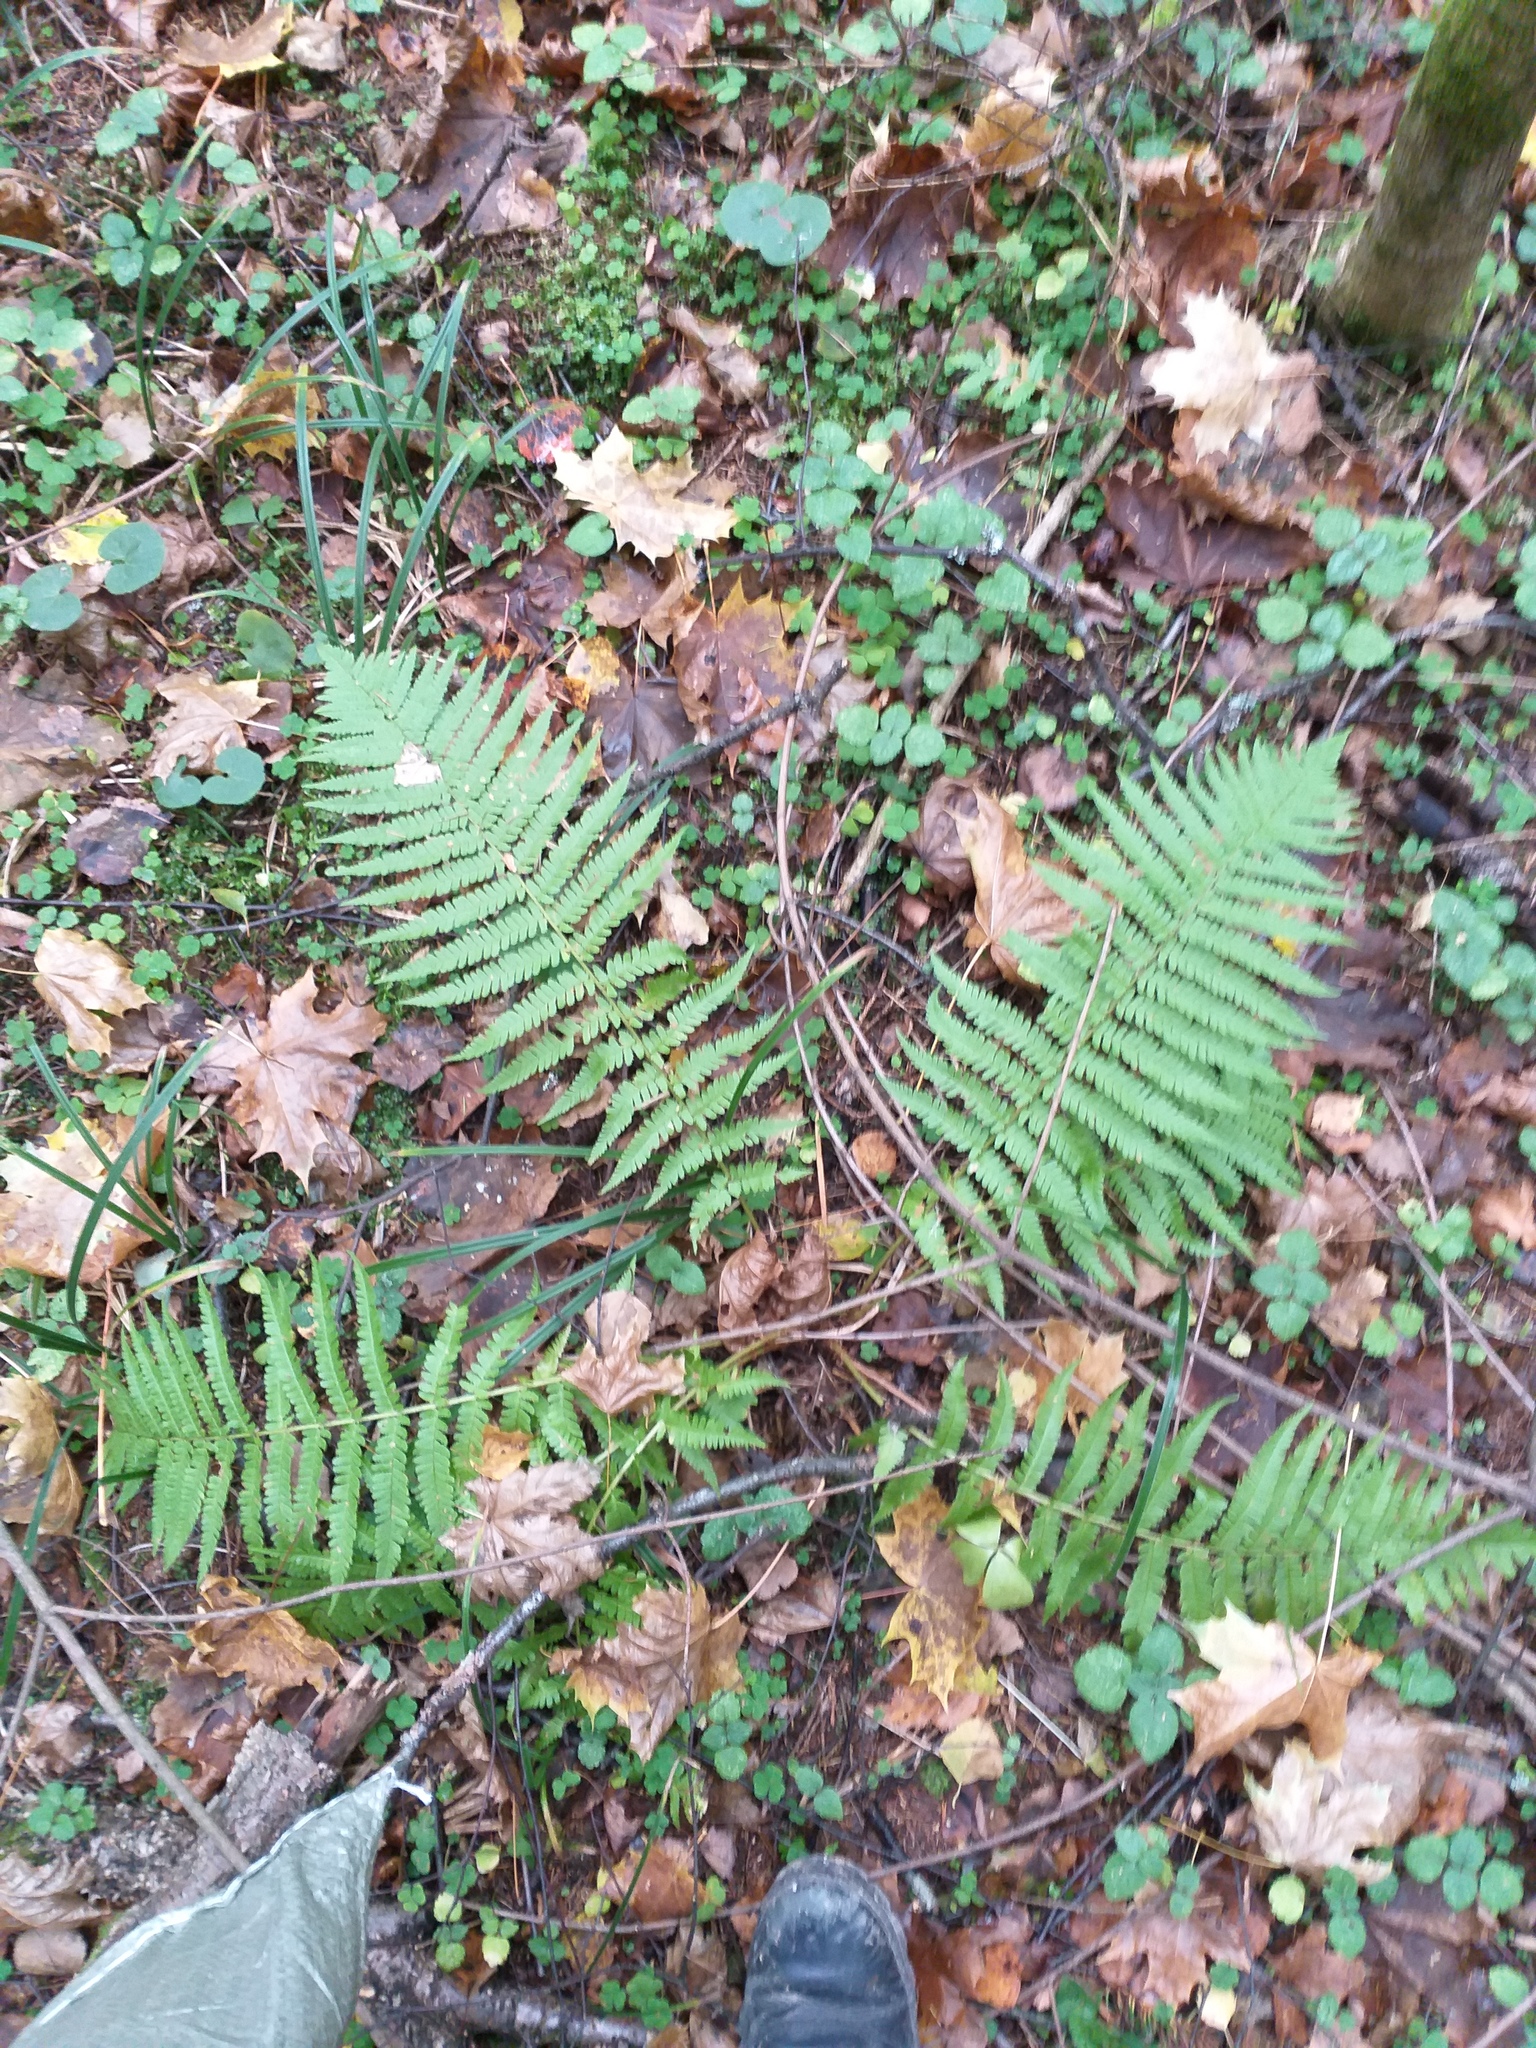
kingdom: Plantae
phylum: Tracheophyta
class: Polypodiopsida
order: Polypodiales
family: Dryopteridaceae
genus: Dryopteris
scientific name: Dryopteris filix-mas
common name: Male fern
